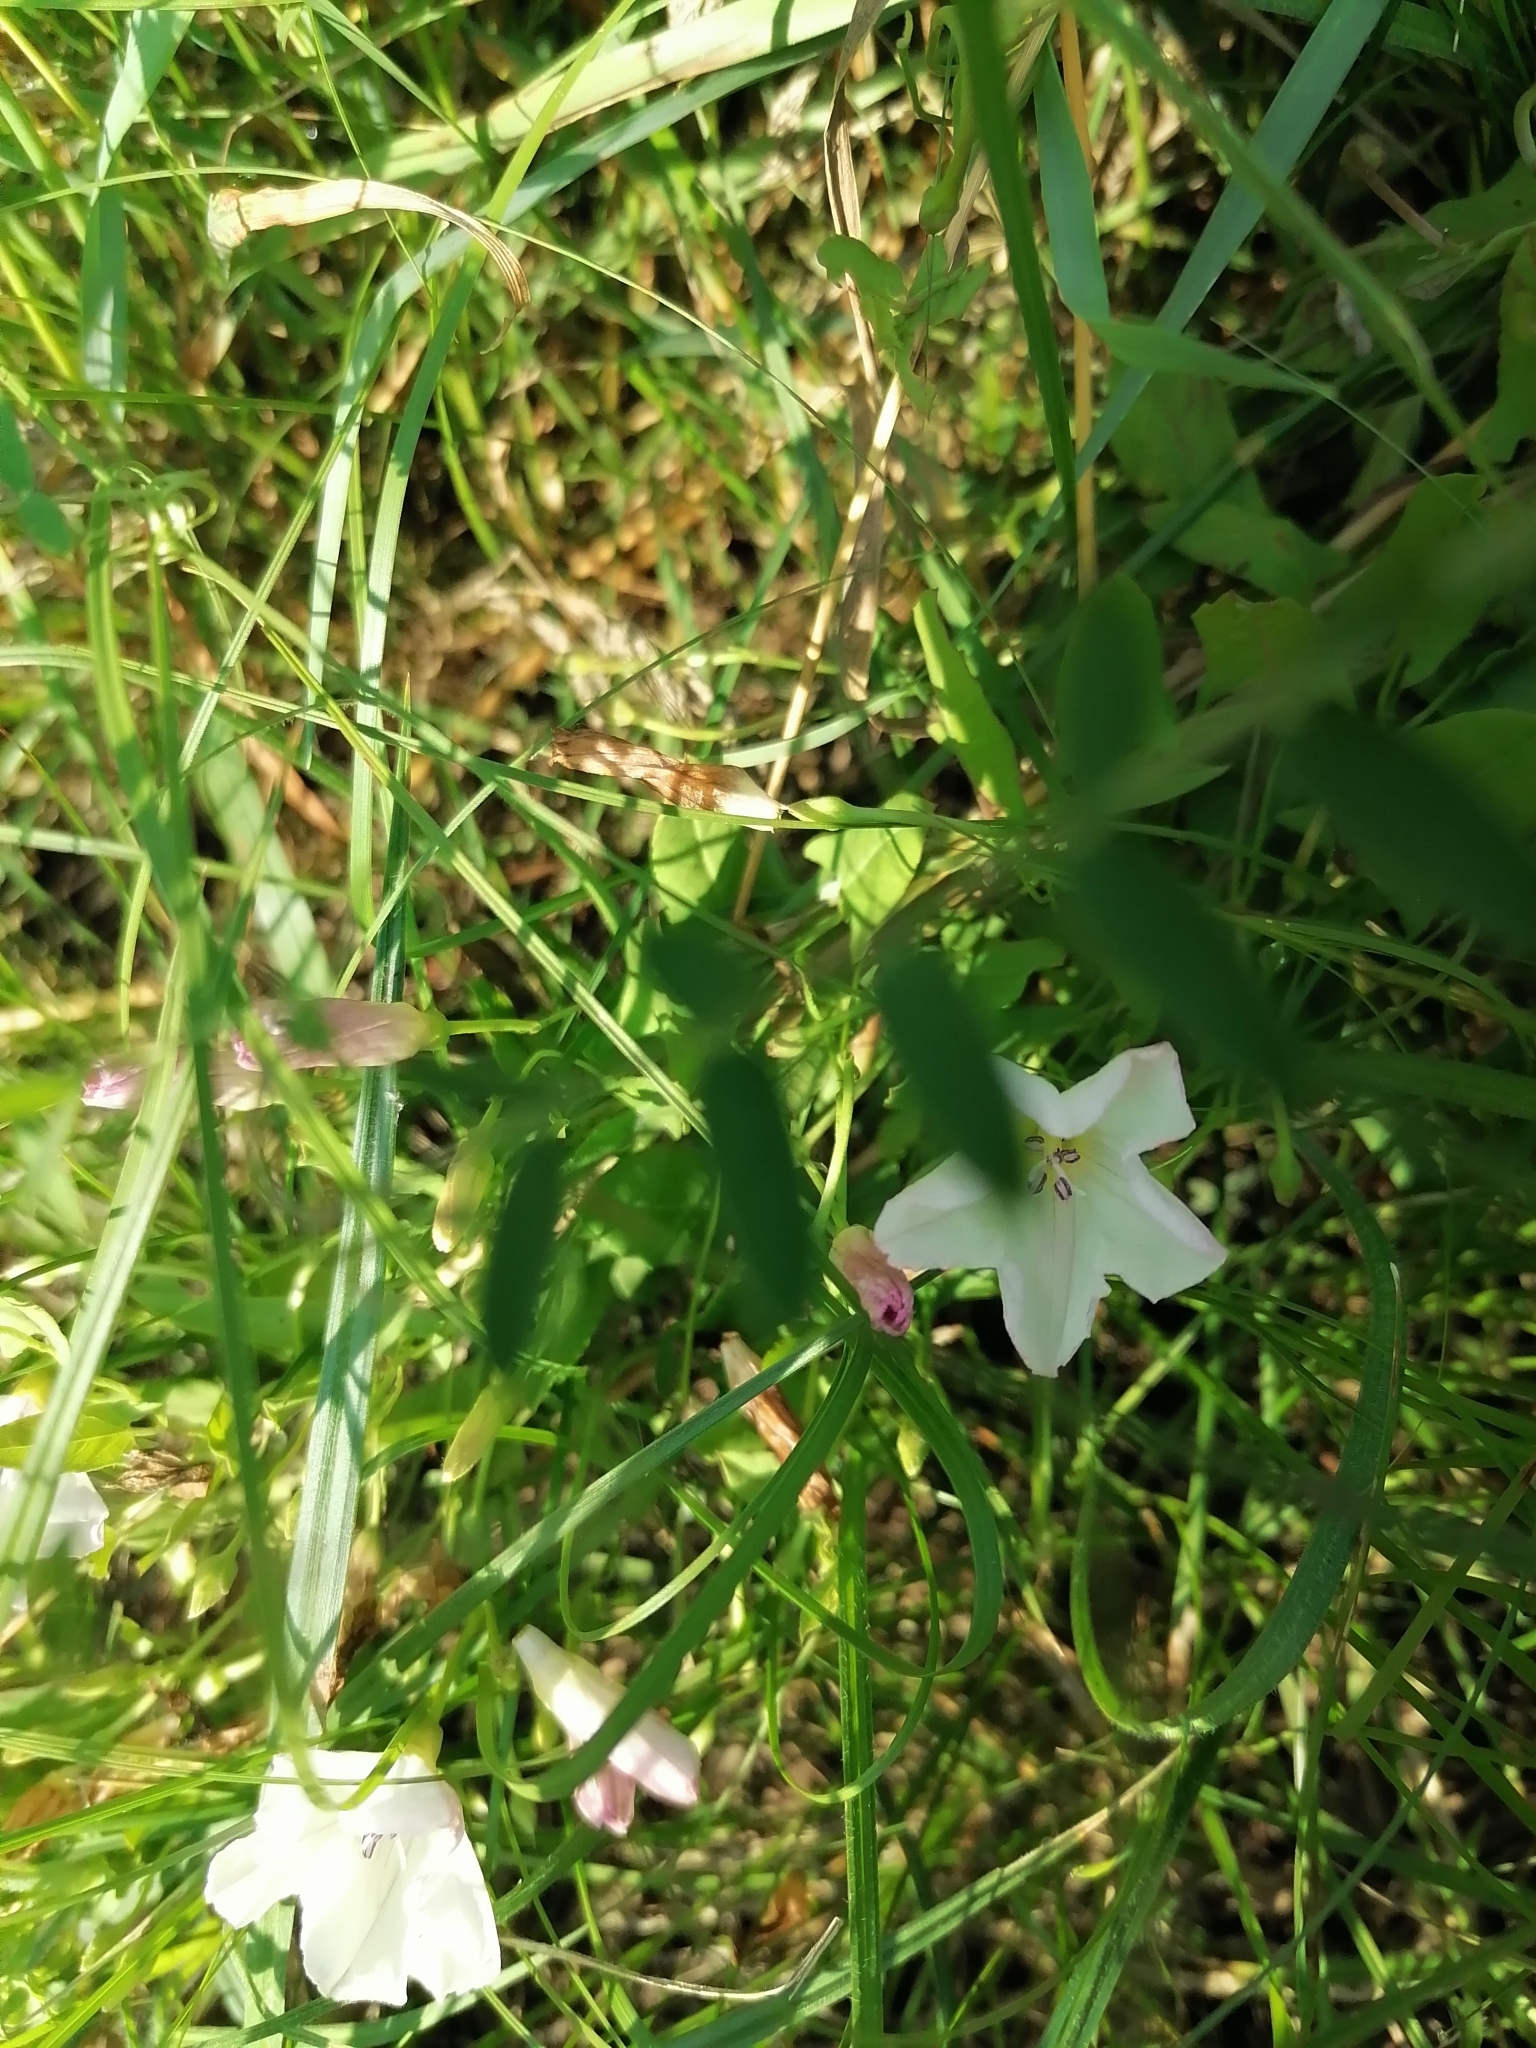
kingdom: Plantae
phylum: Tracheophyta
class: Magnoliopsida
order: Solanales
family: Convolvulaceae
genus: Convolvulus
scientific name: Convolvulus arvensis
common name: Field bindweed
